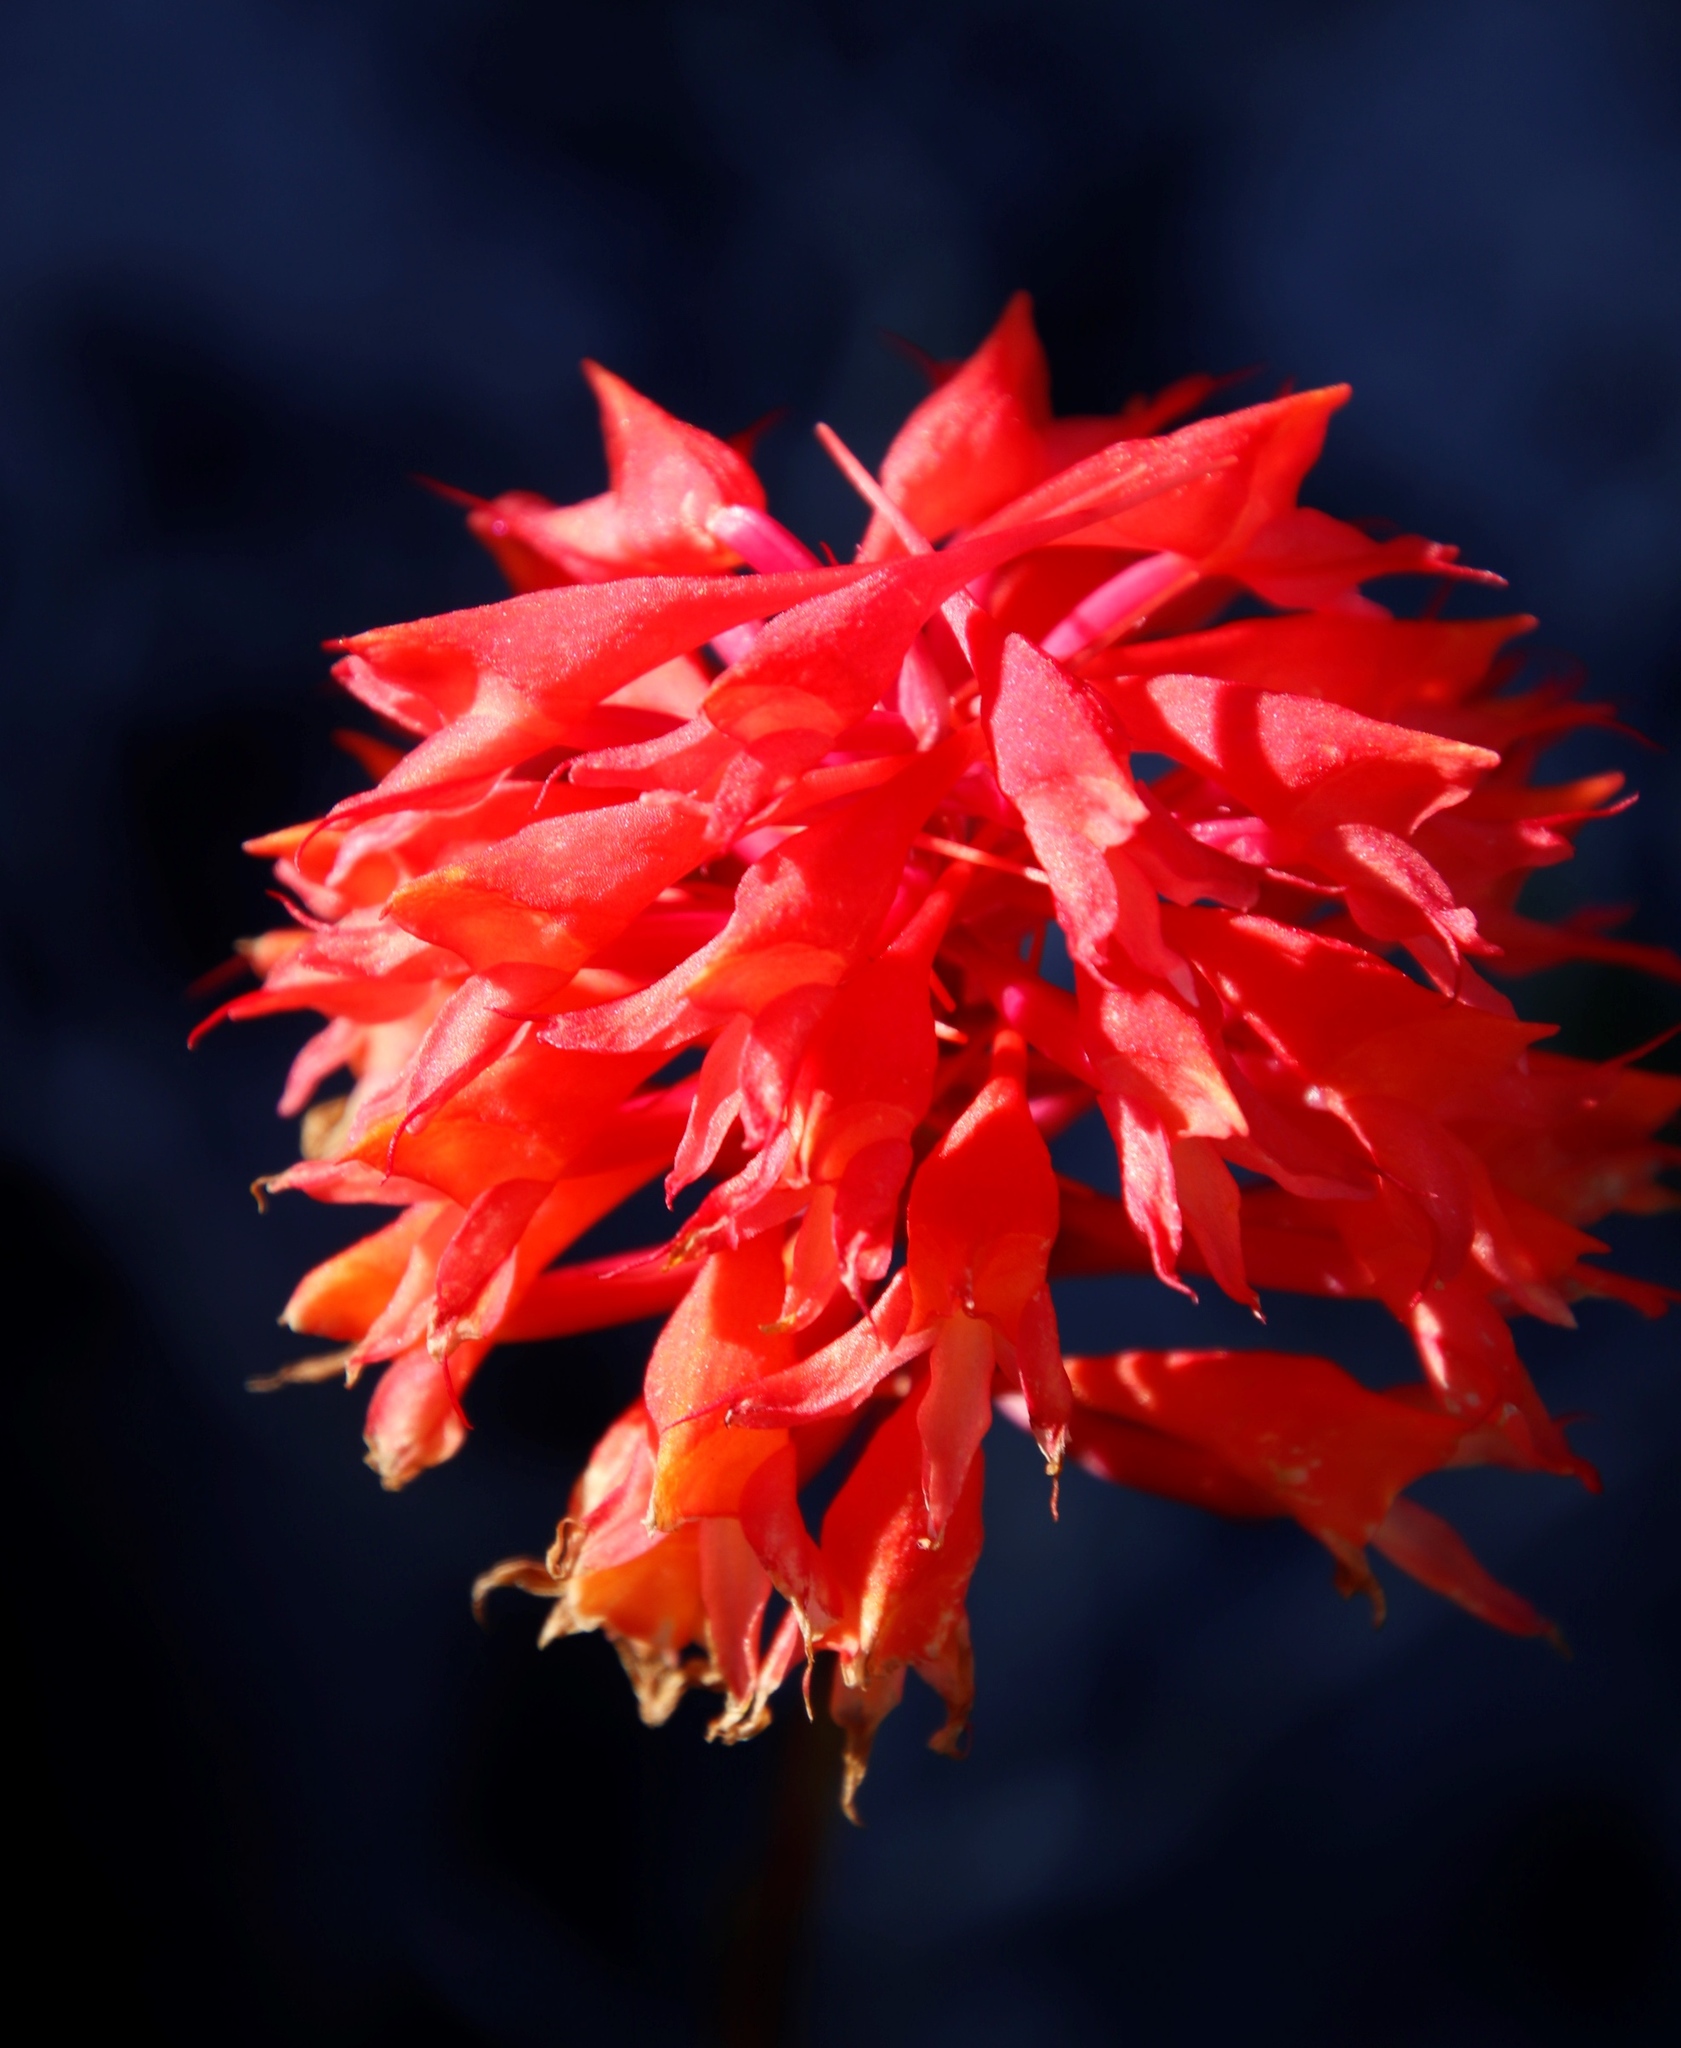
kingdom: Plantae
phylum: Tracheophyta
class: Liliopsida
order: Asparagales
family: Orchidaceae
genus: Disa
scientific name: Disa ferruginea
